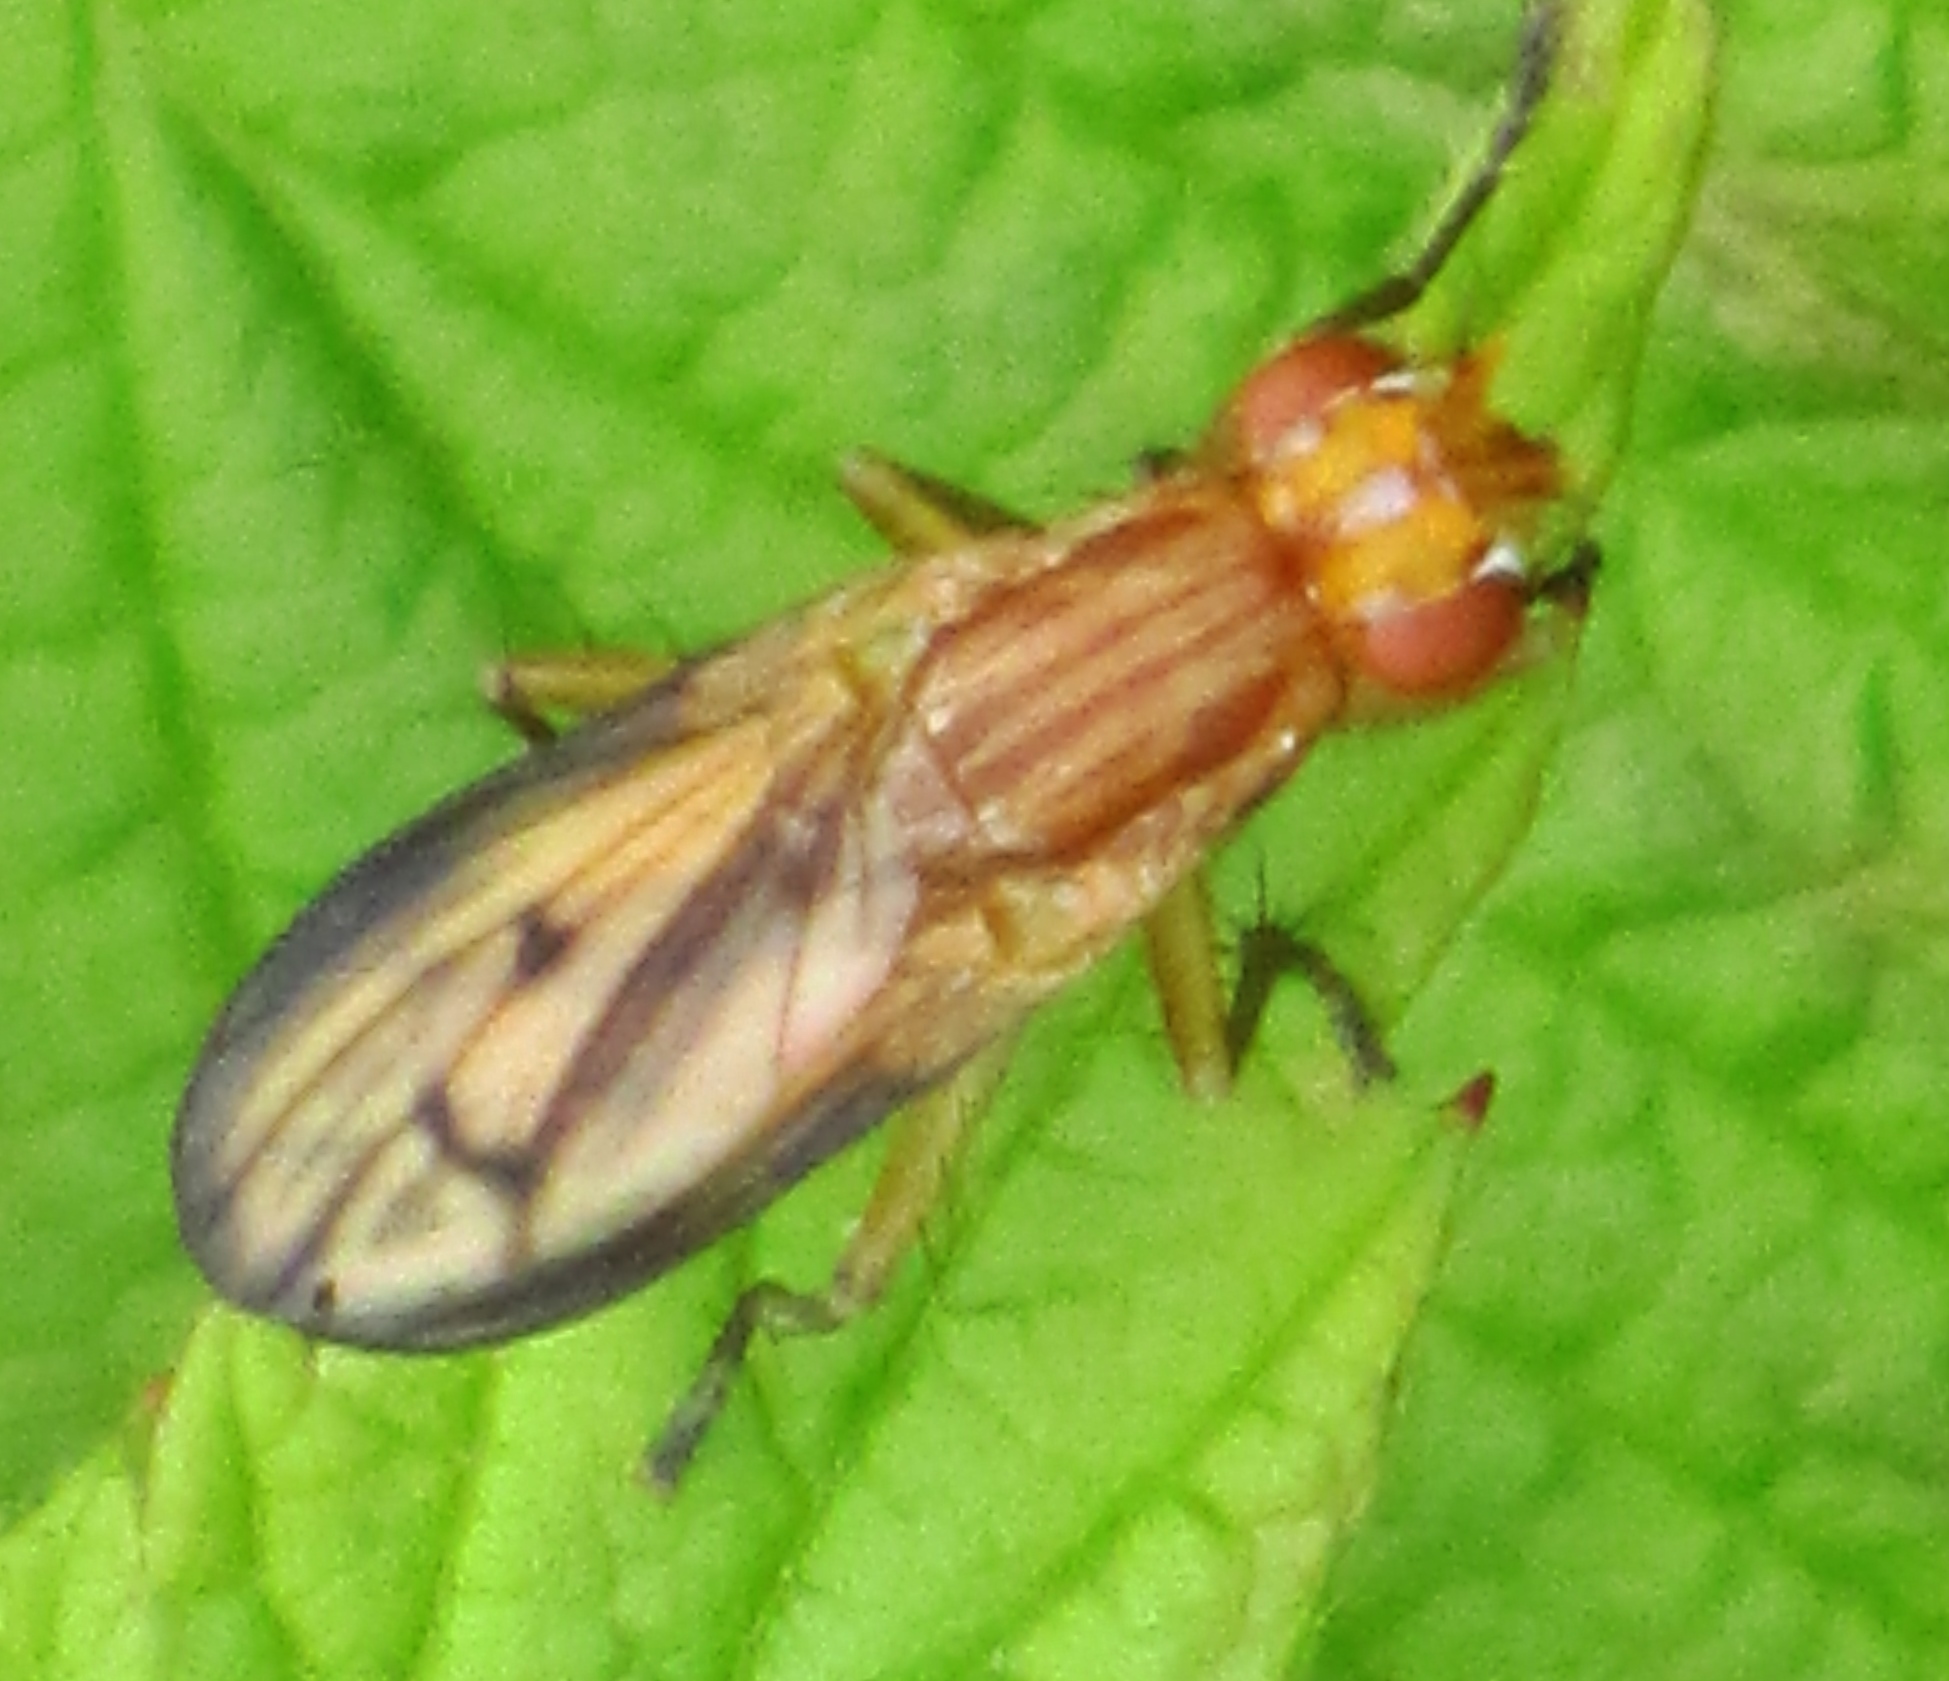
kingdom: Animalia
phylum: Arthropoda
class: Insecta
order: Diptera
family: Sciomyzidae
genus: Tetanocera
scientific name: Tetanocera plebeja
